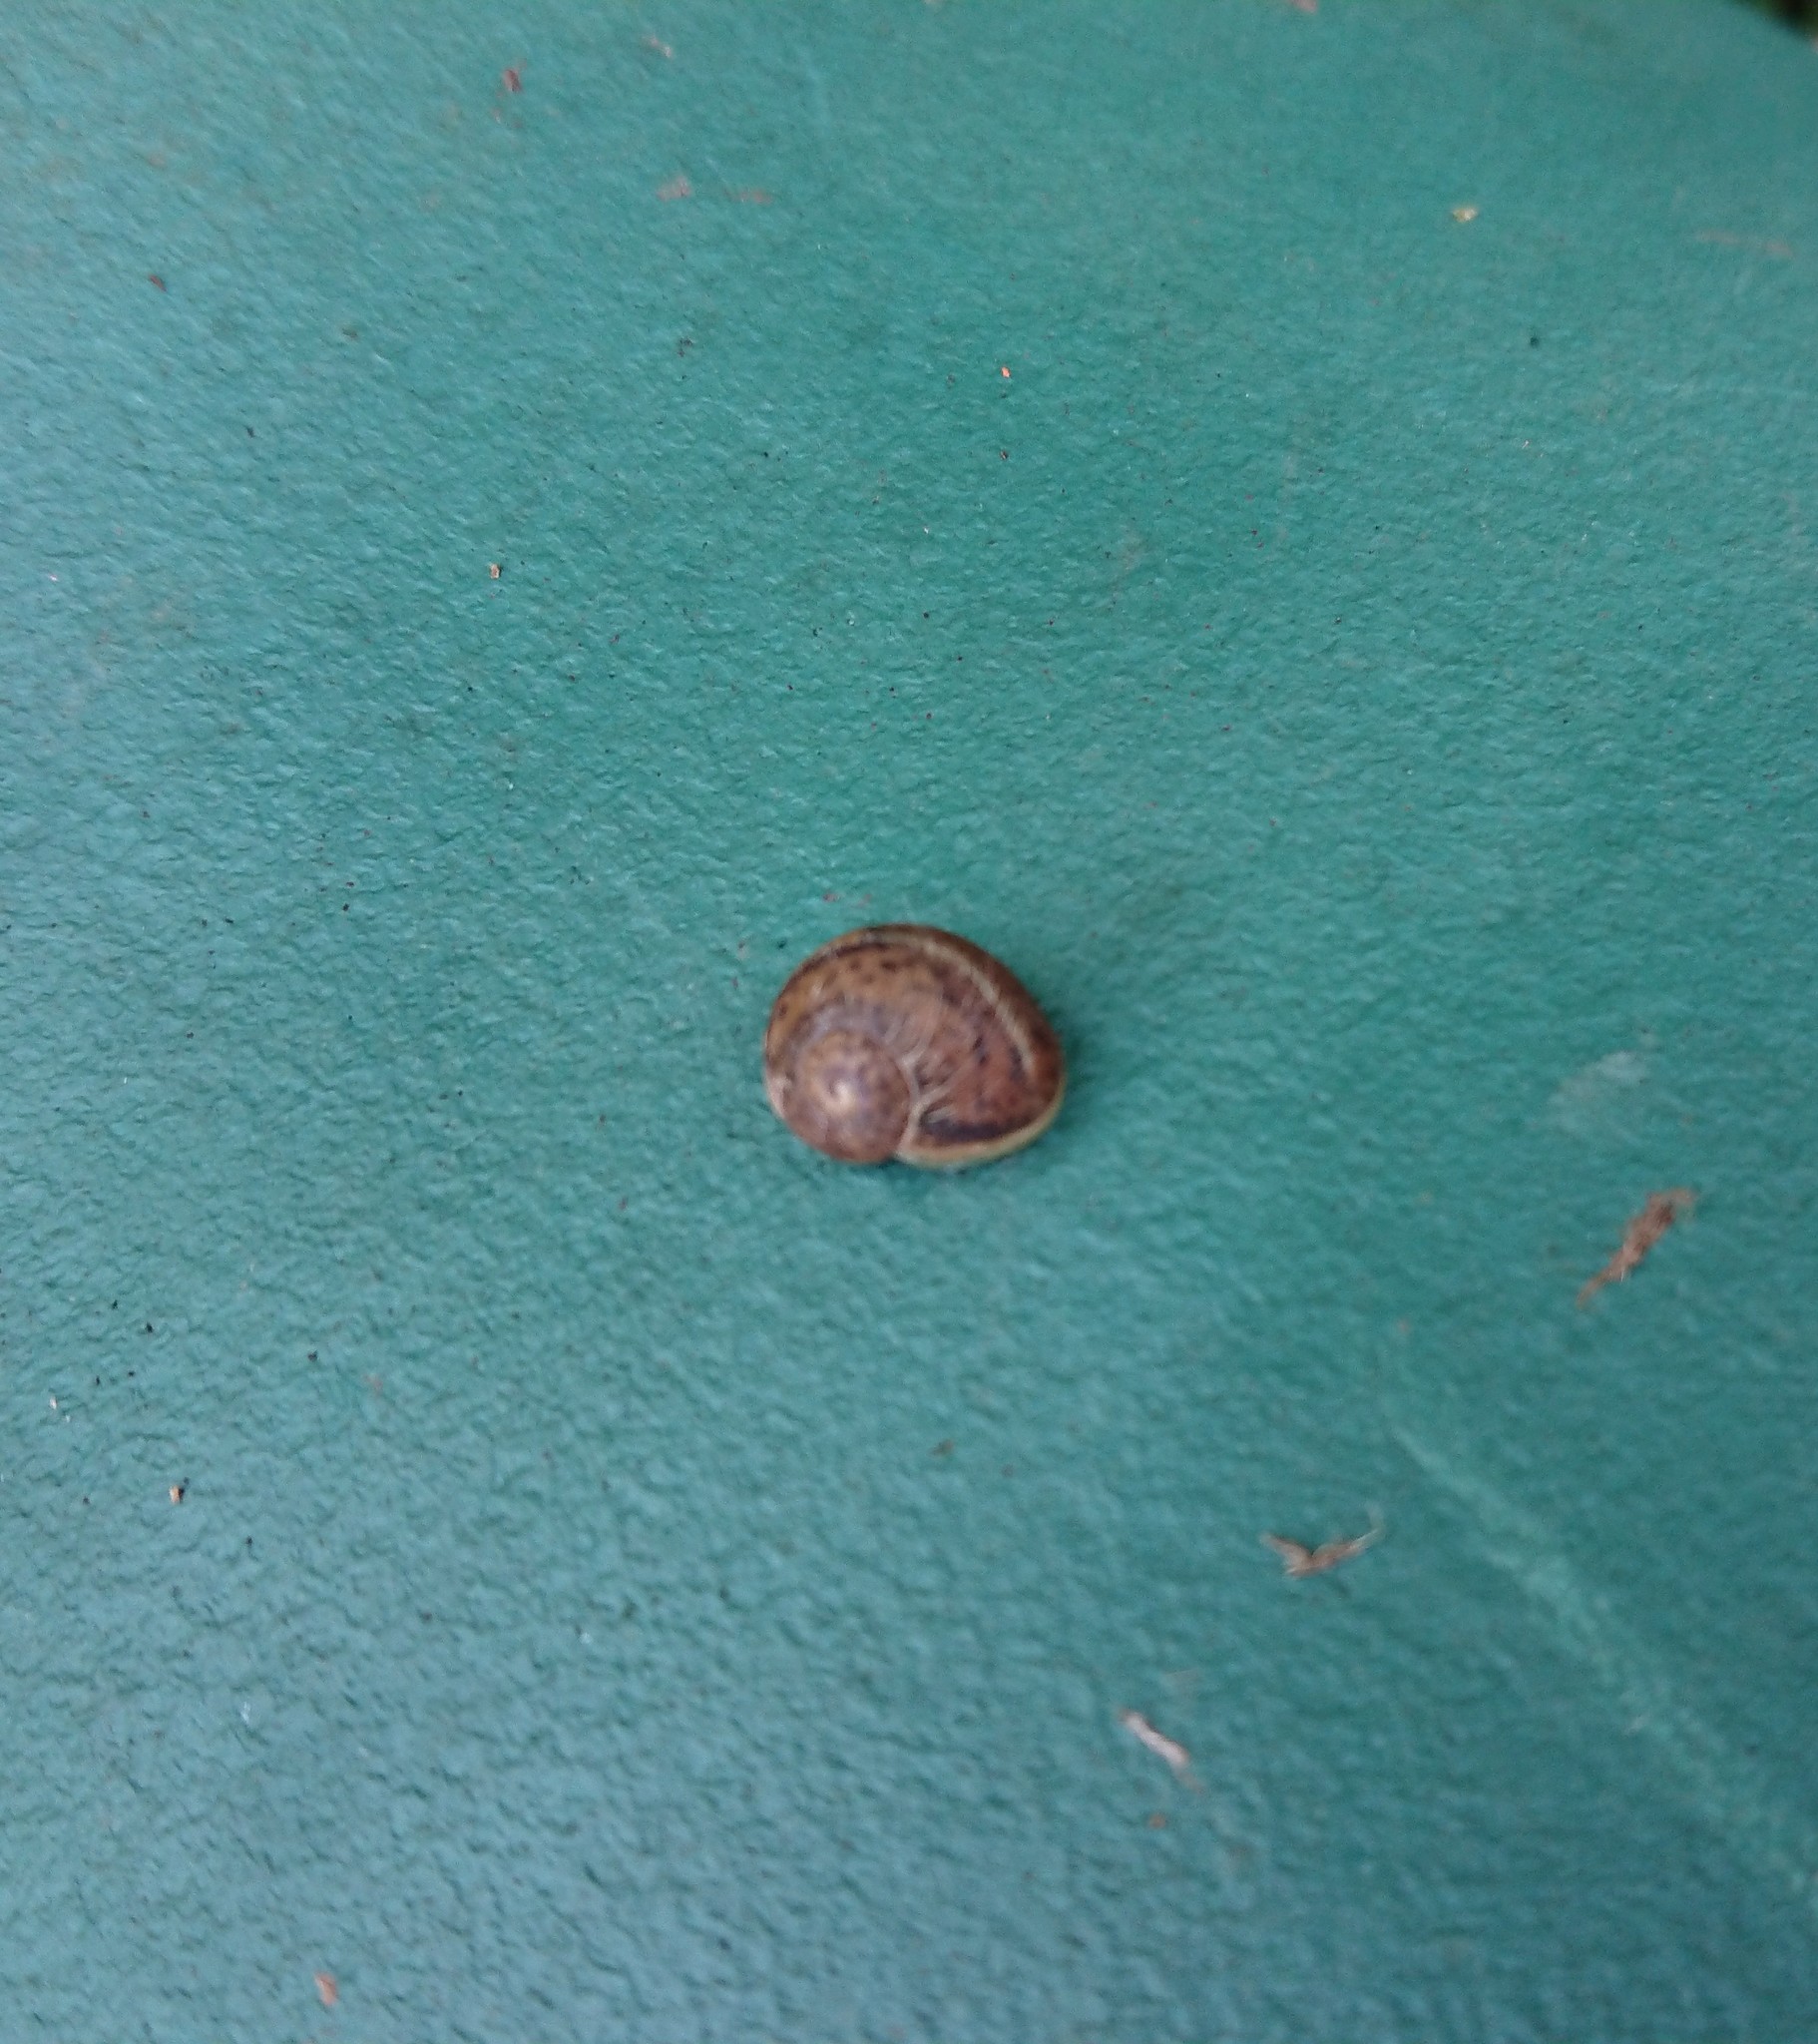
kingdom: Animalia
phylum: Mollusca
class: Gastropoda
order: Stylommatophora
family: Helicidae
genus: Cornu
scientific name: Cornu aspersum
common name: Brown garden snail
